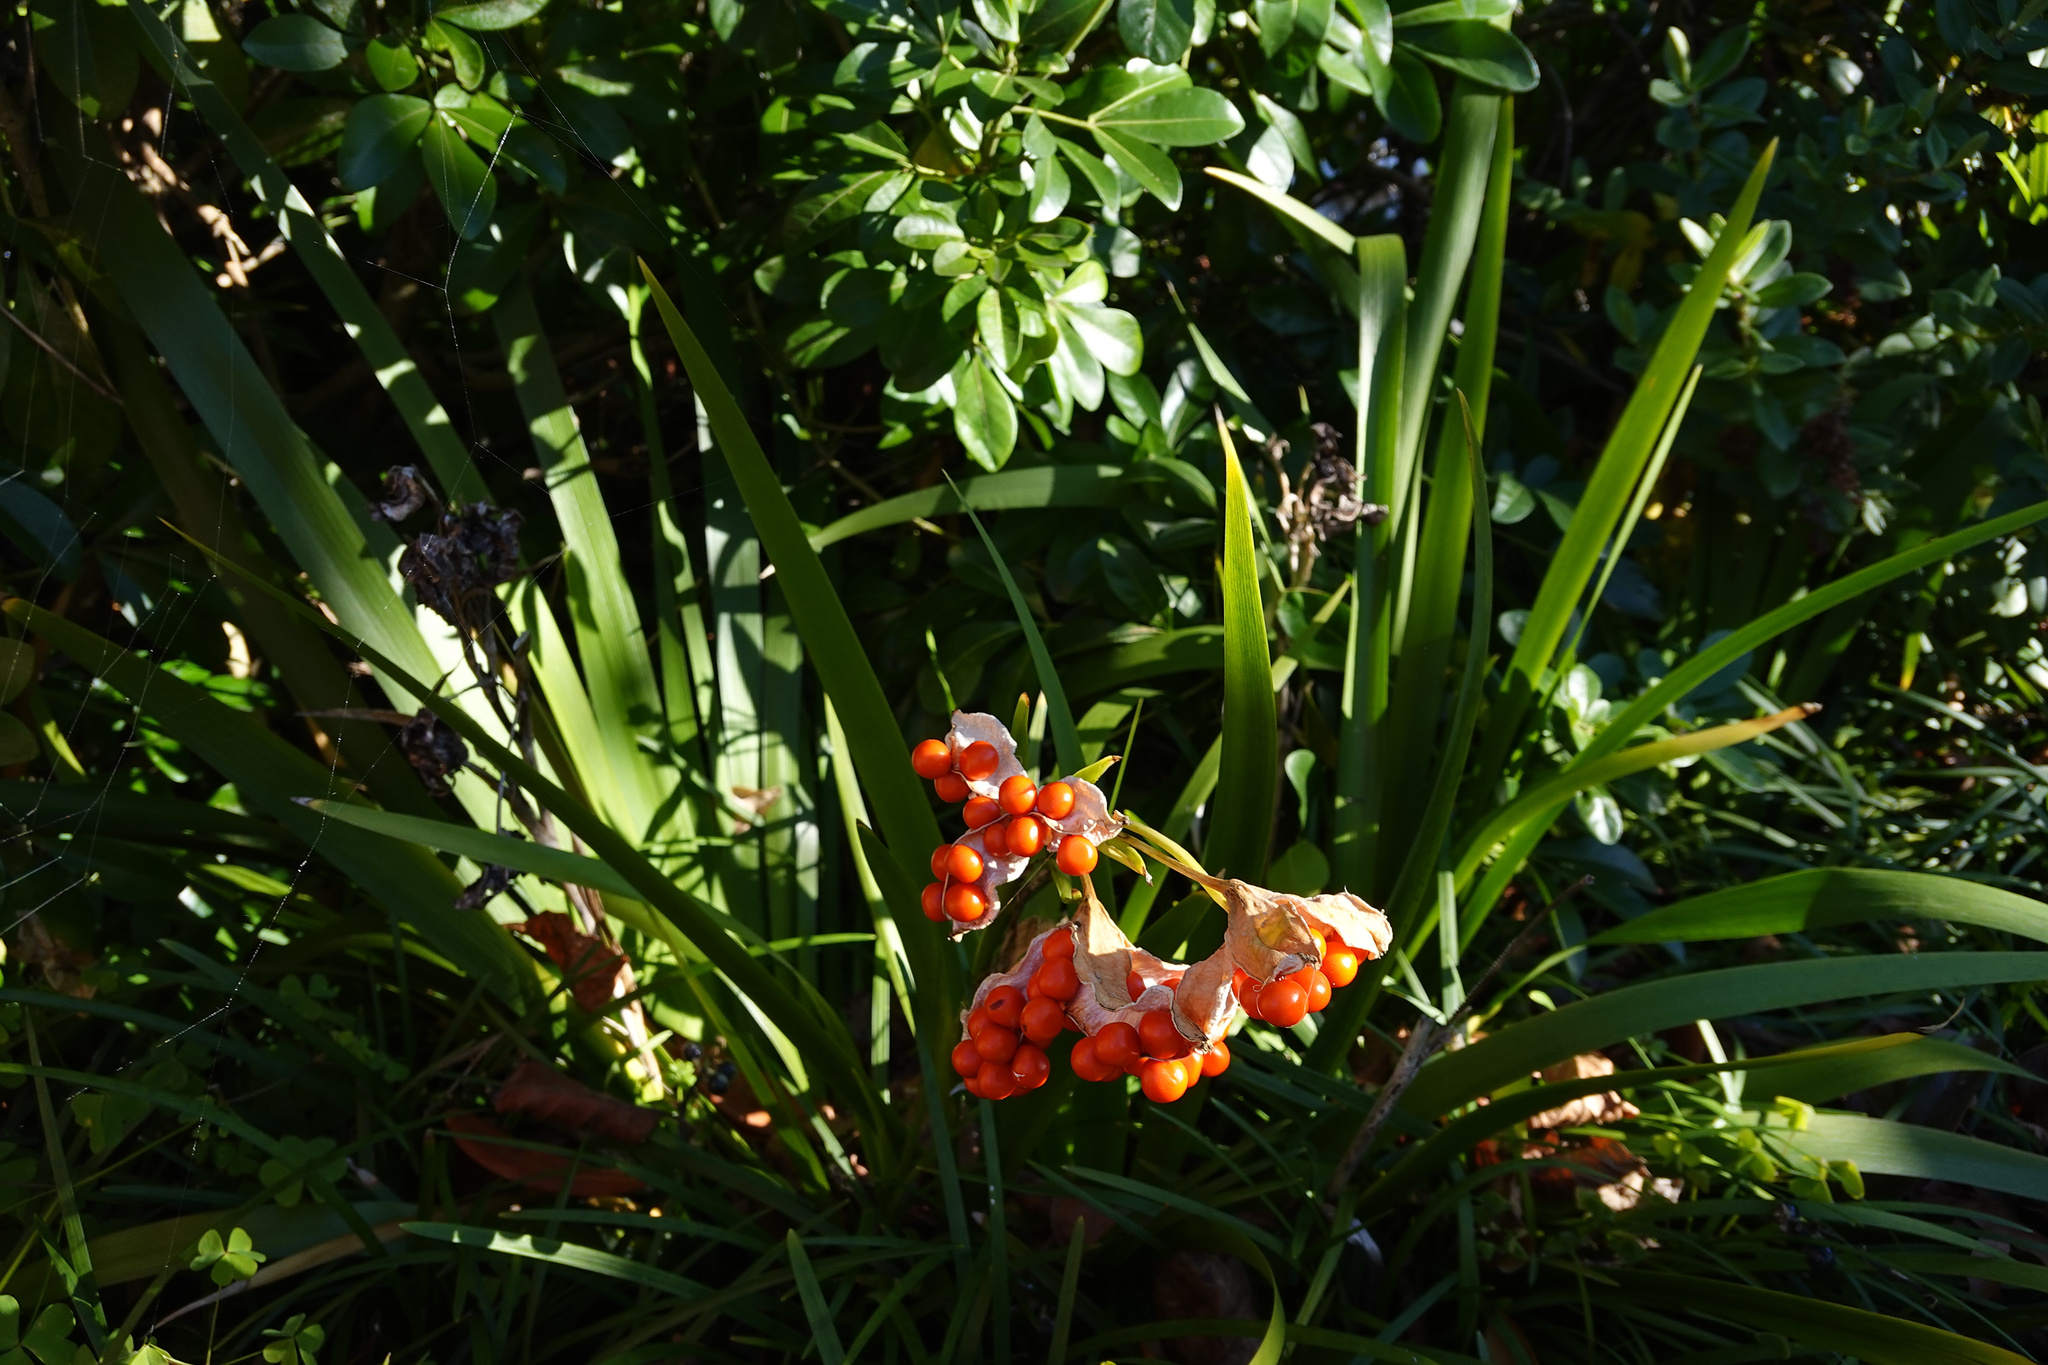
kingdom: Plantae
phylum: Tracheophyta
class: Liliopsida
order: Asparagales
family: Iridaceae
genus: Iris
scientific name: Iris foetidissima
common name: Stinking iris
